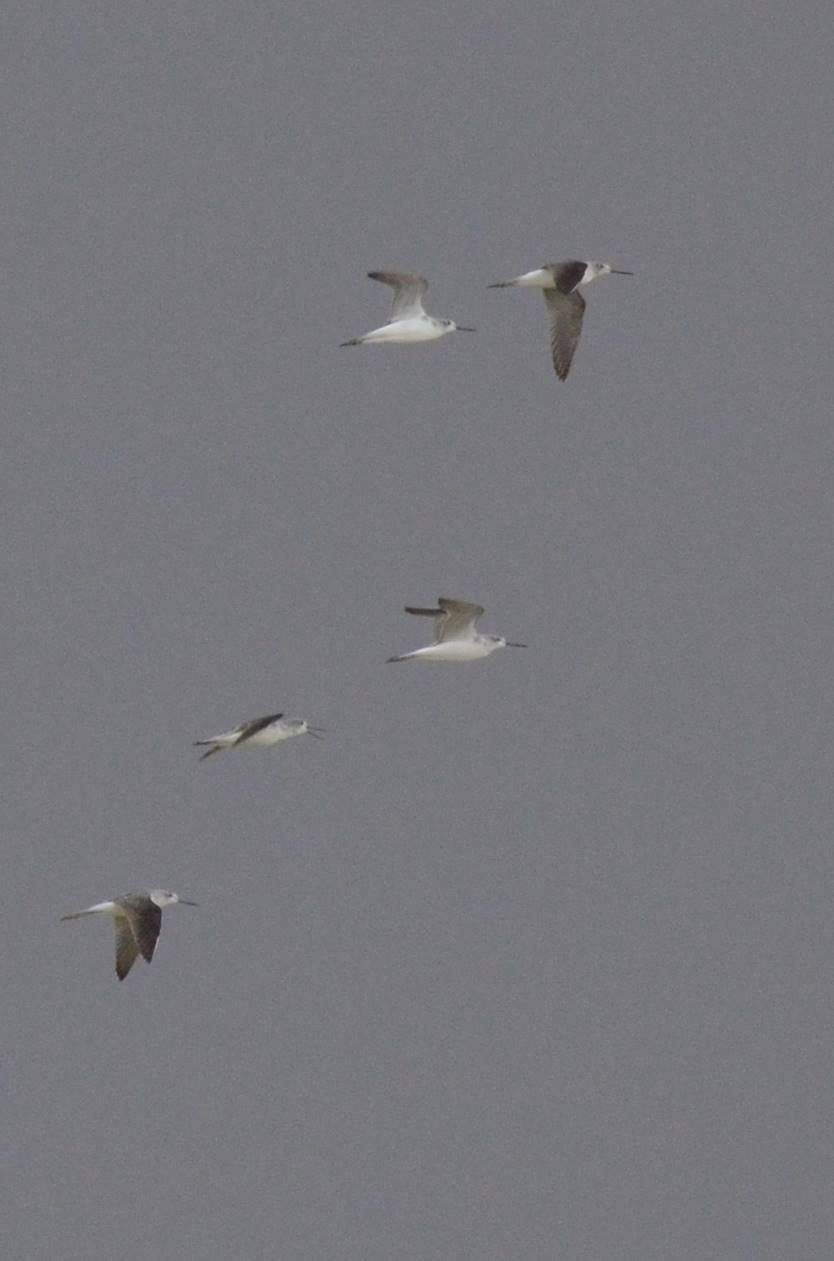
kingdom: Animalia
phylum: Chordata
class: Aves
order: Charadriiformes
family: Scolopacidae
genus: Tringa
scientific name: Tringa nebularia
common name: Common greenshank
